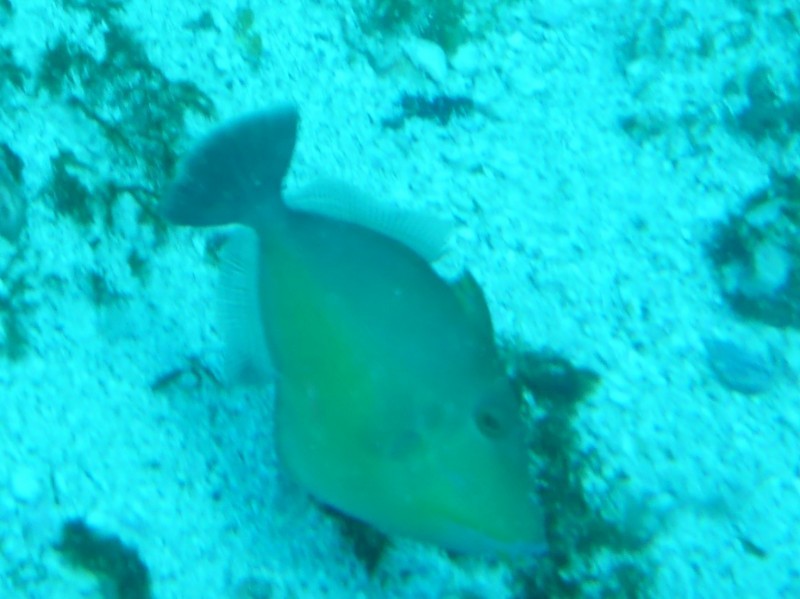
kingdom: Animalia
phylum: Chordata
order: Tetraodontiformes
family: Balistidae
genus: Sufflamen
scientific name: Sufflamen verres
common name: Orangeside triggerfish
